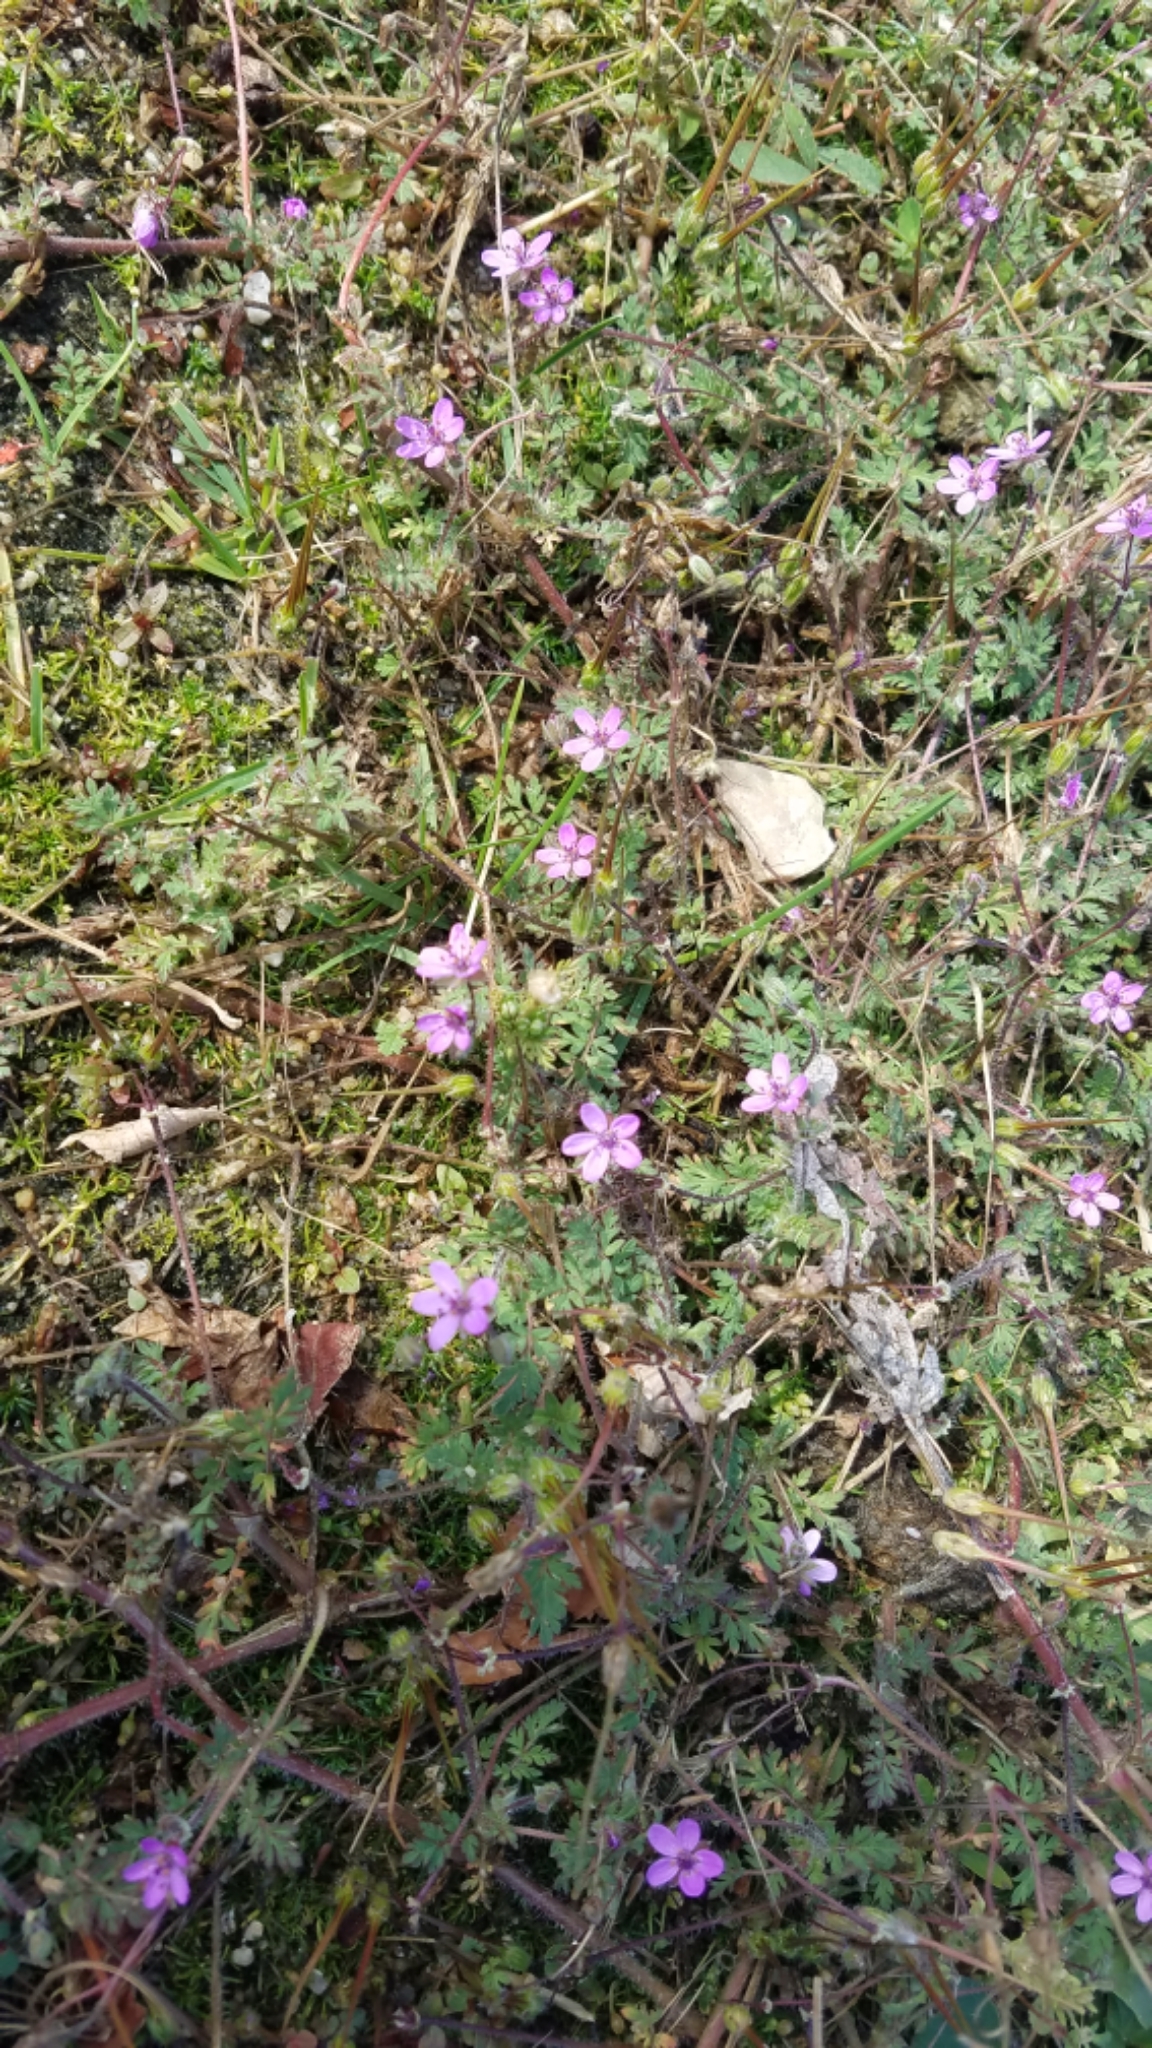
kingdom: Plantae
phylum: Tracheophyta
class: Magnoliopsida
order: Geraniales
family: Geraniaceae
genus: Erodium
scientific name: Erodium cicutarium
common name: Common stork's-bill
